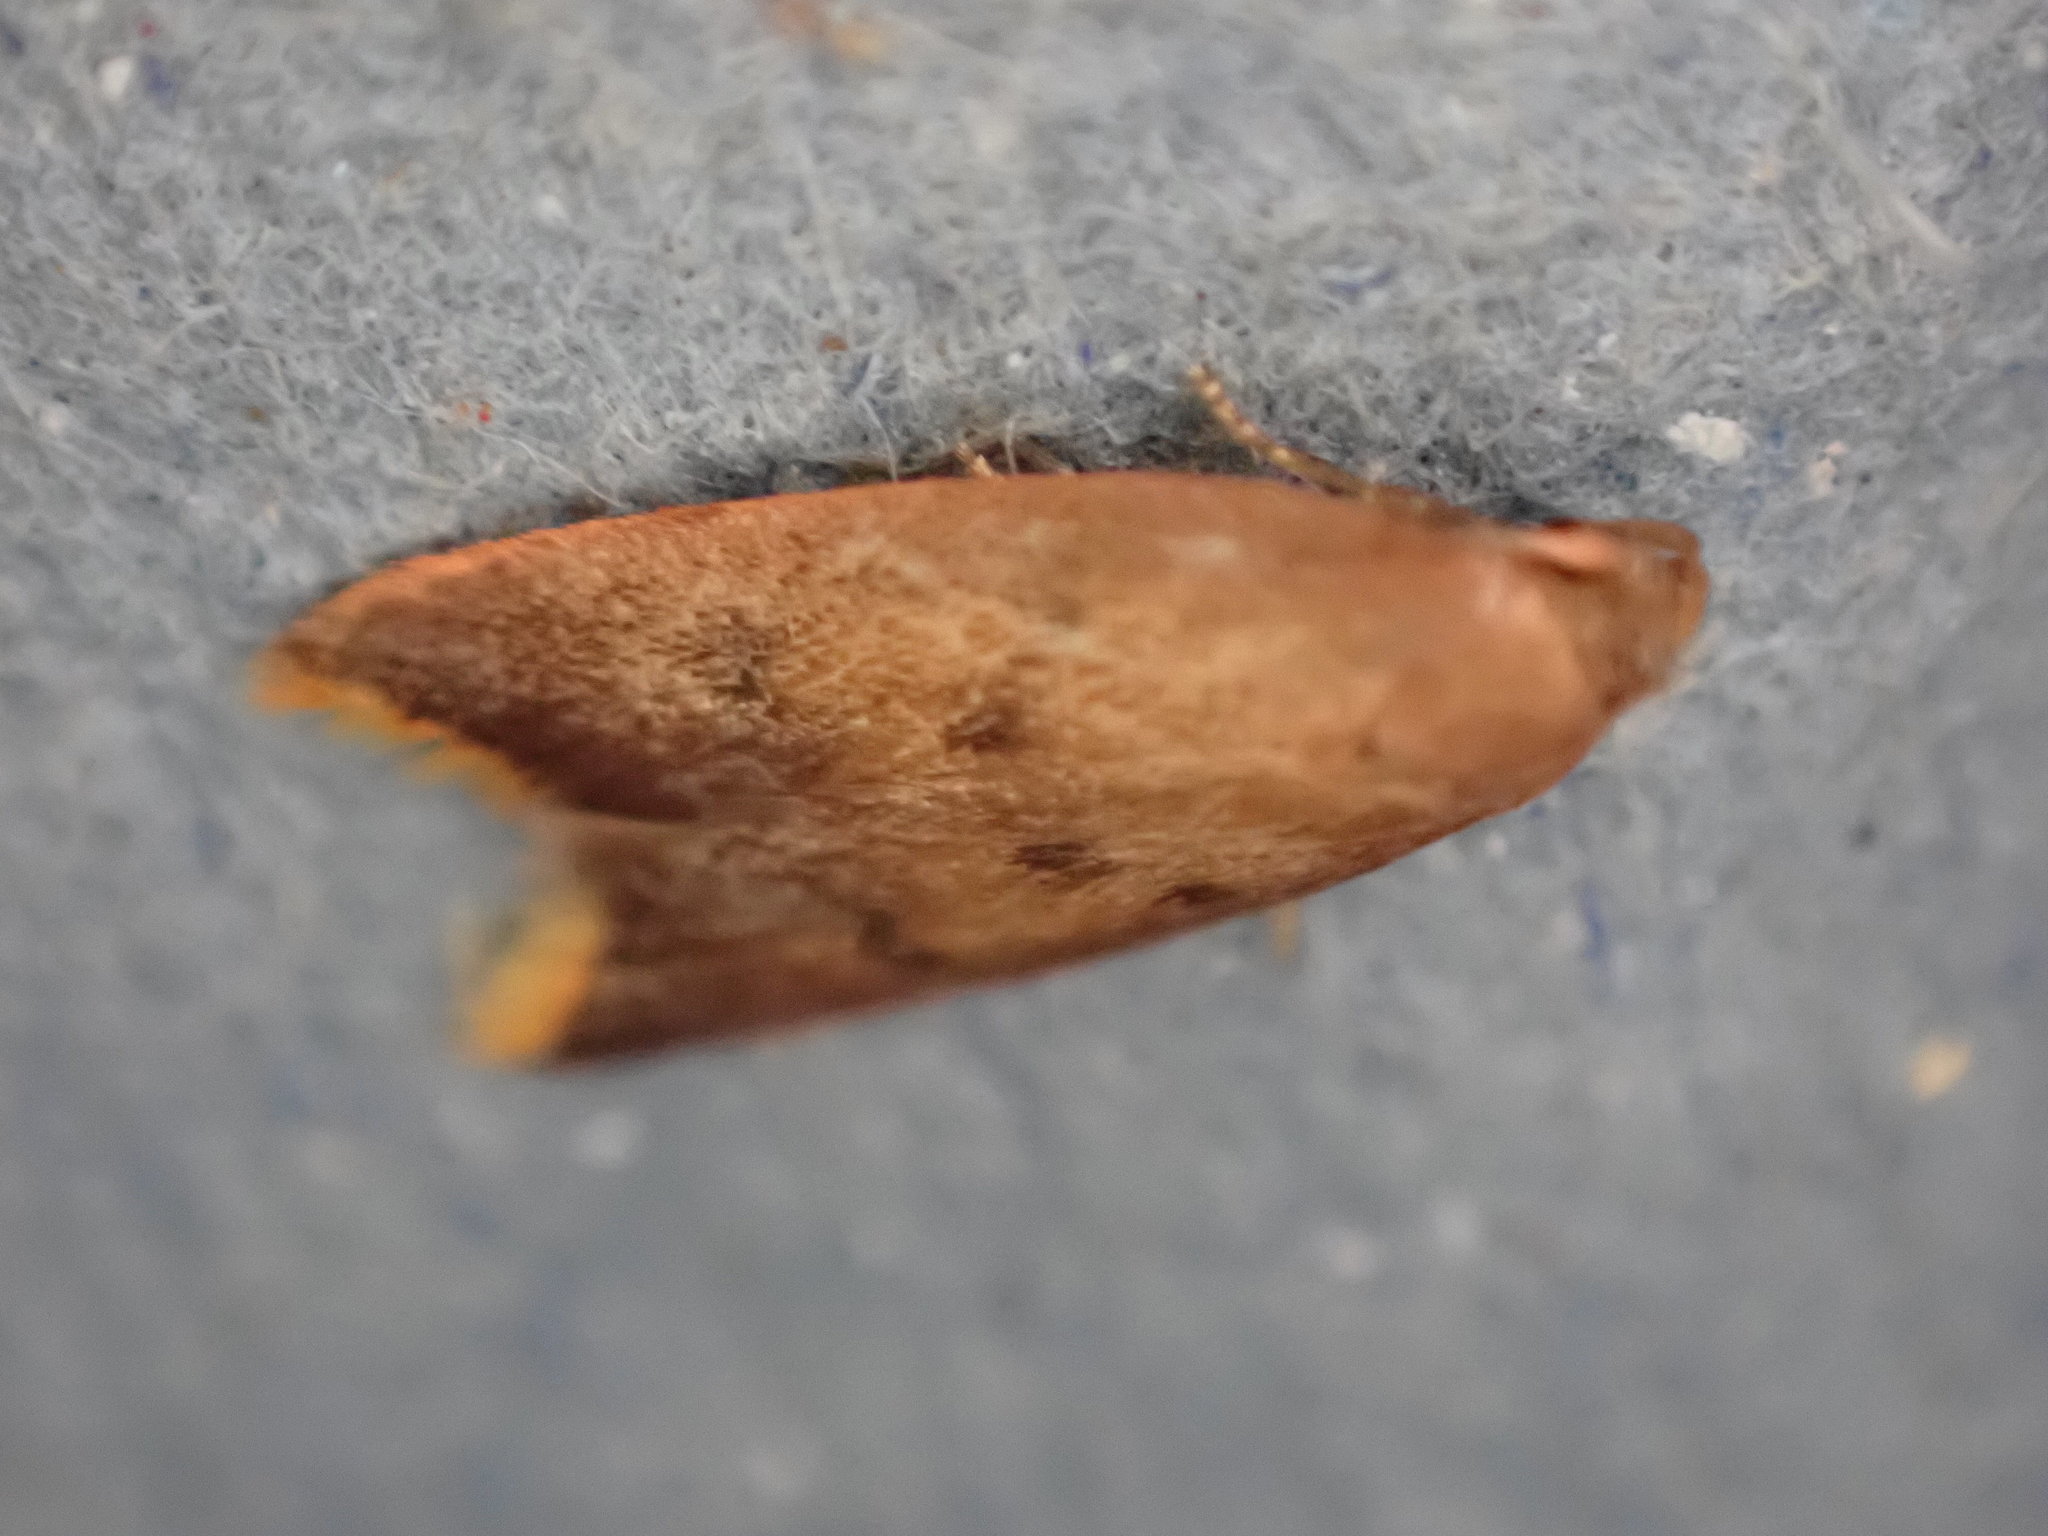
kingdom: Animalia
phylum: Arthropoda
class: Insecta
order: Lepidoptera
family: Oecophoridae
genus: Tachystola
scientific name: Tachystola acroxantha
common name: Ruddy streak
